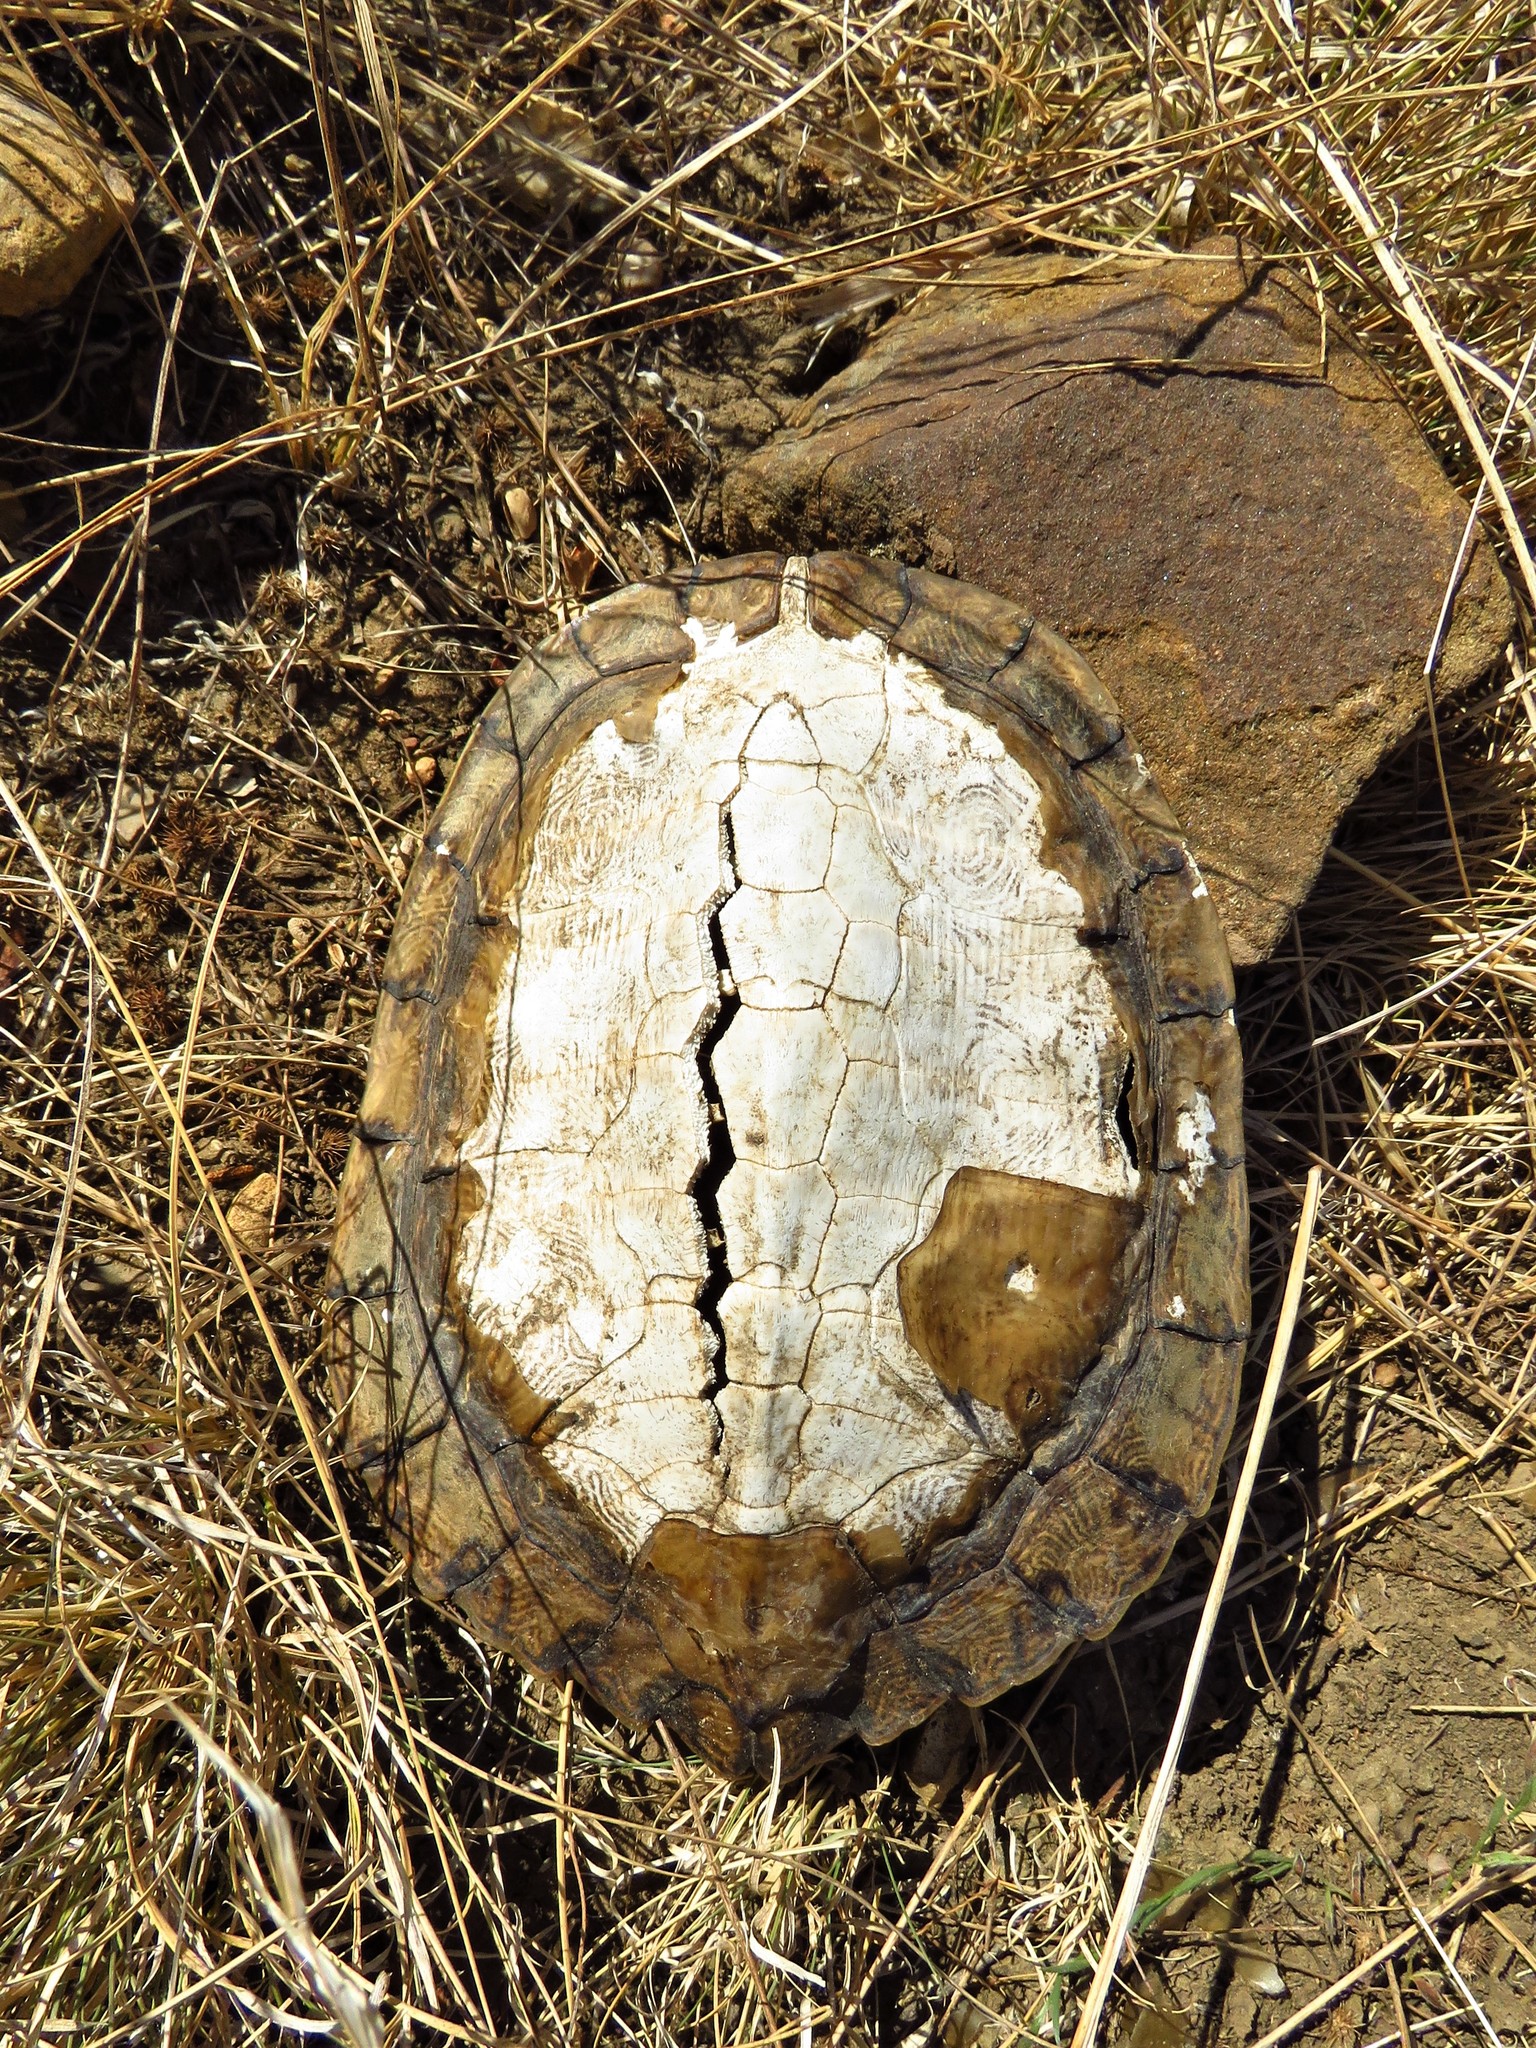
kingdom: Animalia
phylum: Chordata
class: Testudines
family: Emydidae
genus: Graptemys
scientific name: Graptemys versa
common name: Texas map turtle
